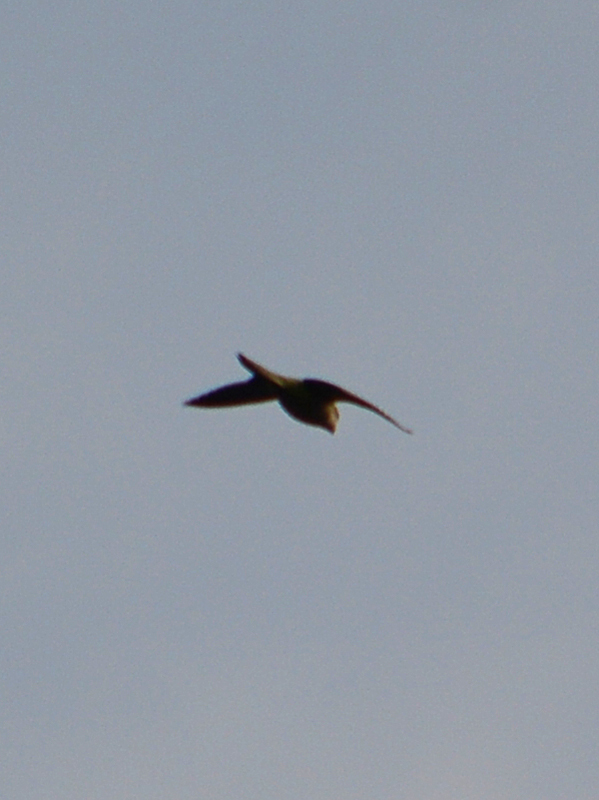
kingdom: Animalia
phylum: Chordata
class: Aves
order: Psittaciformes
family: Psittacidae
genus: Myiopsitta
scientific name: Myiopsitta monachus
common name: Monk parakeet
